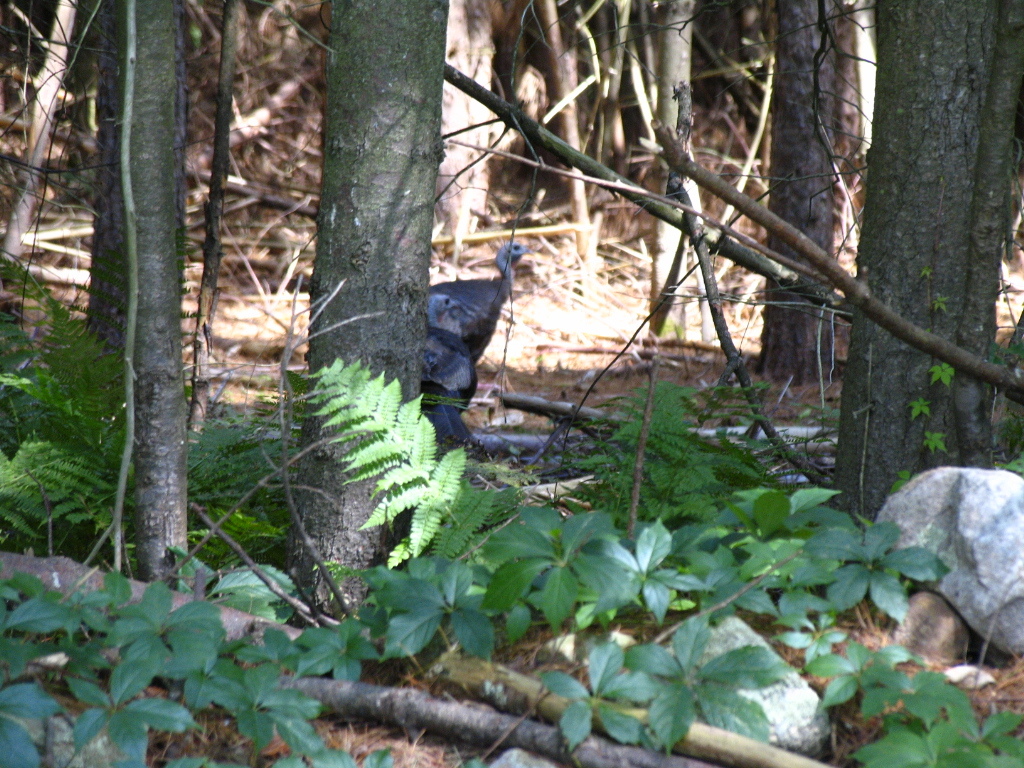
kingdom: Animalia
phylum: Chordata
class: Aves
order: Galliformes
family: Phasianidae
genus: Meleagris
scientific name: Meleagris gallopavo
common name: Wild turkey
